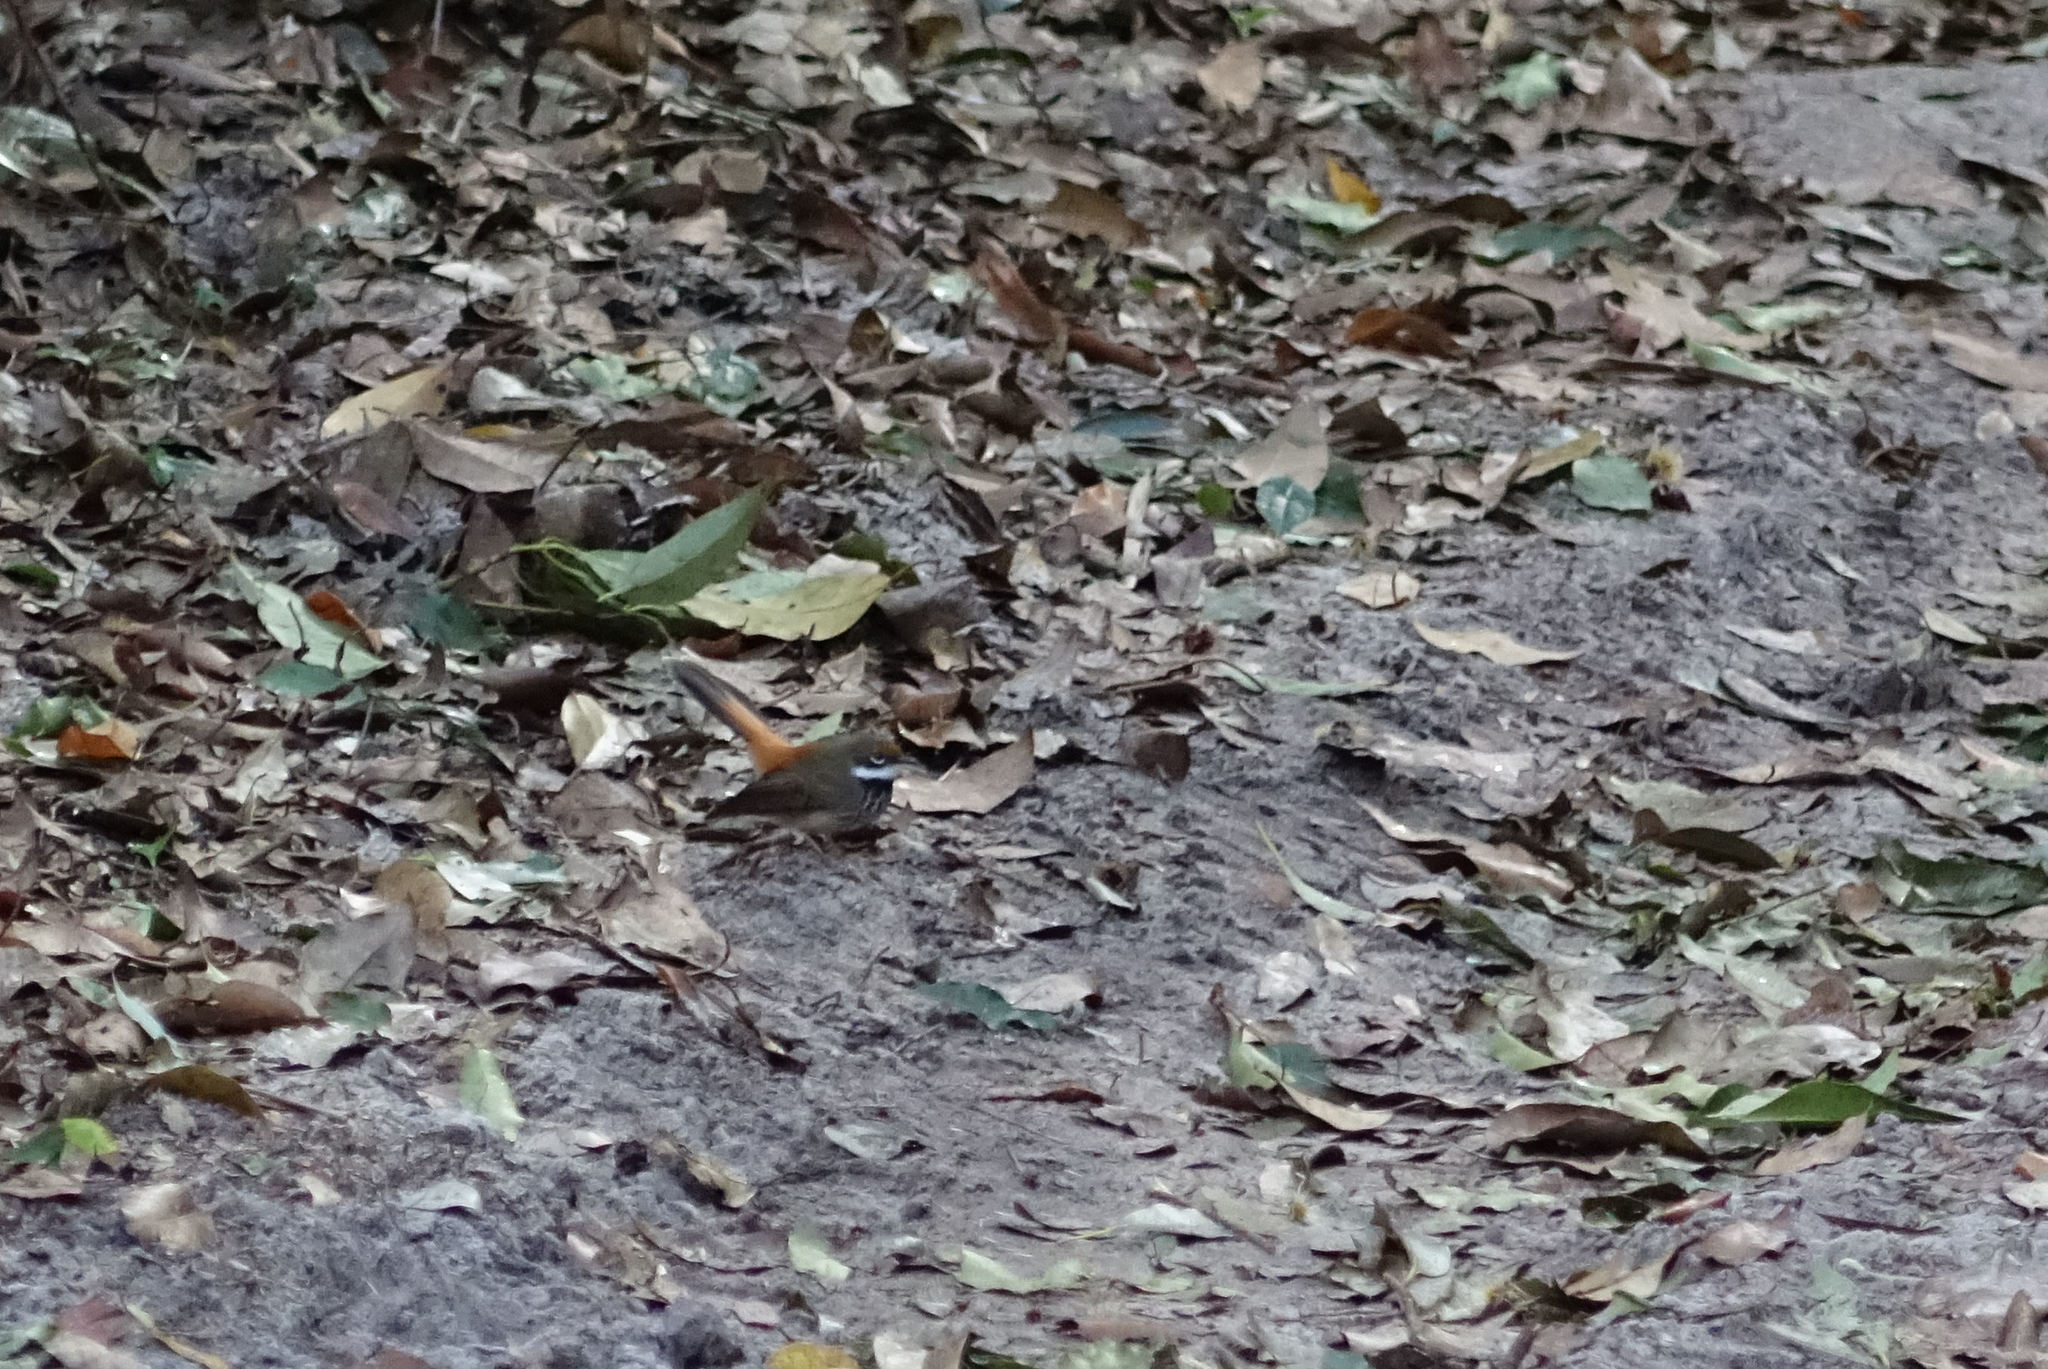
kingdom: Animalia
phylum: Chordata
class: Aves
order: Passeriformes
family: Rhipiduridae
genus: Rhipidura
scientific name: Rhipidura rufifrons
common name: Rufous fantail
